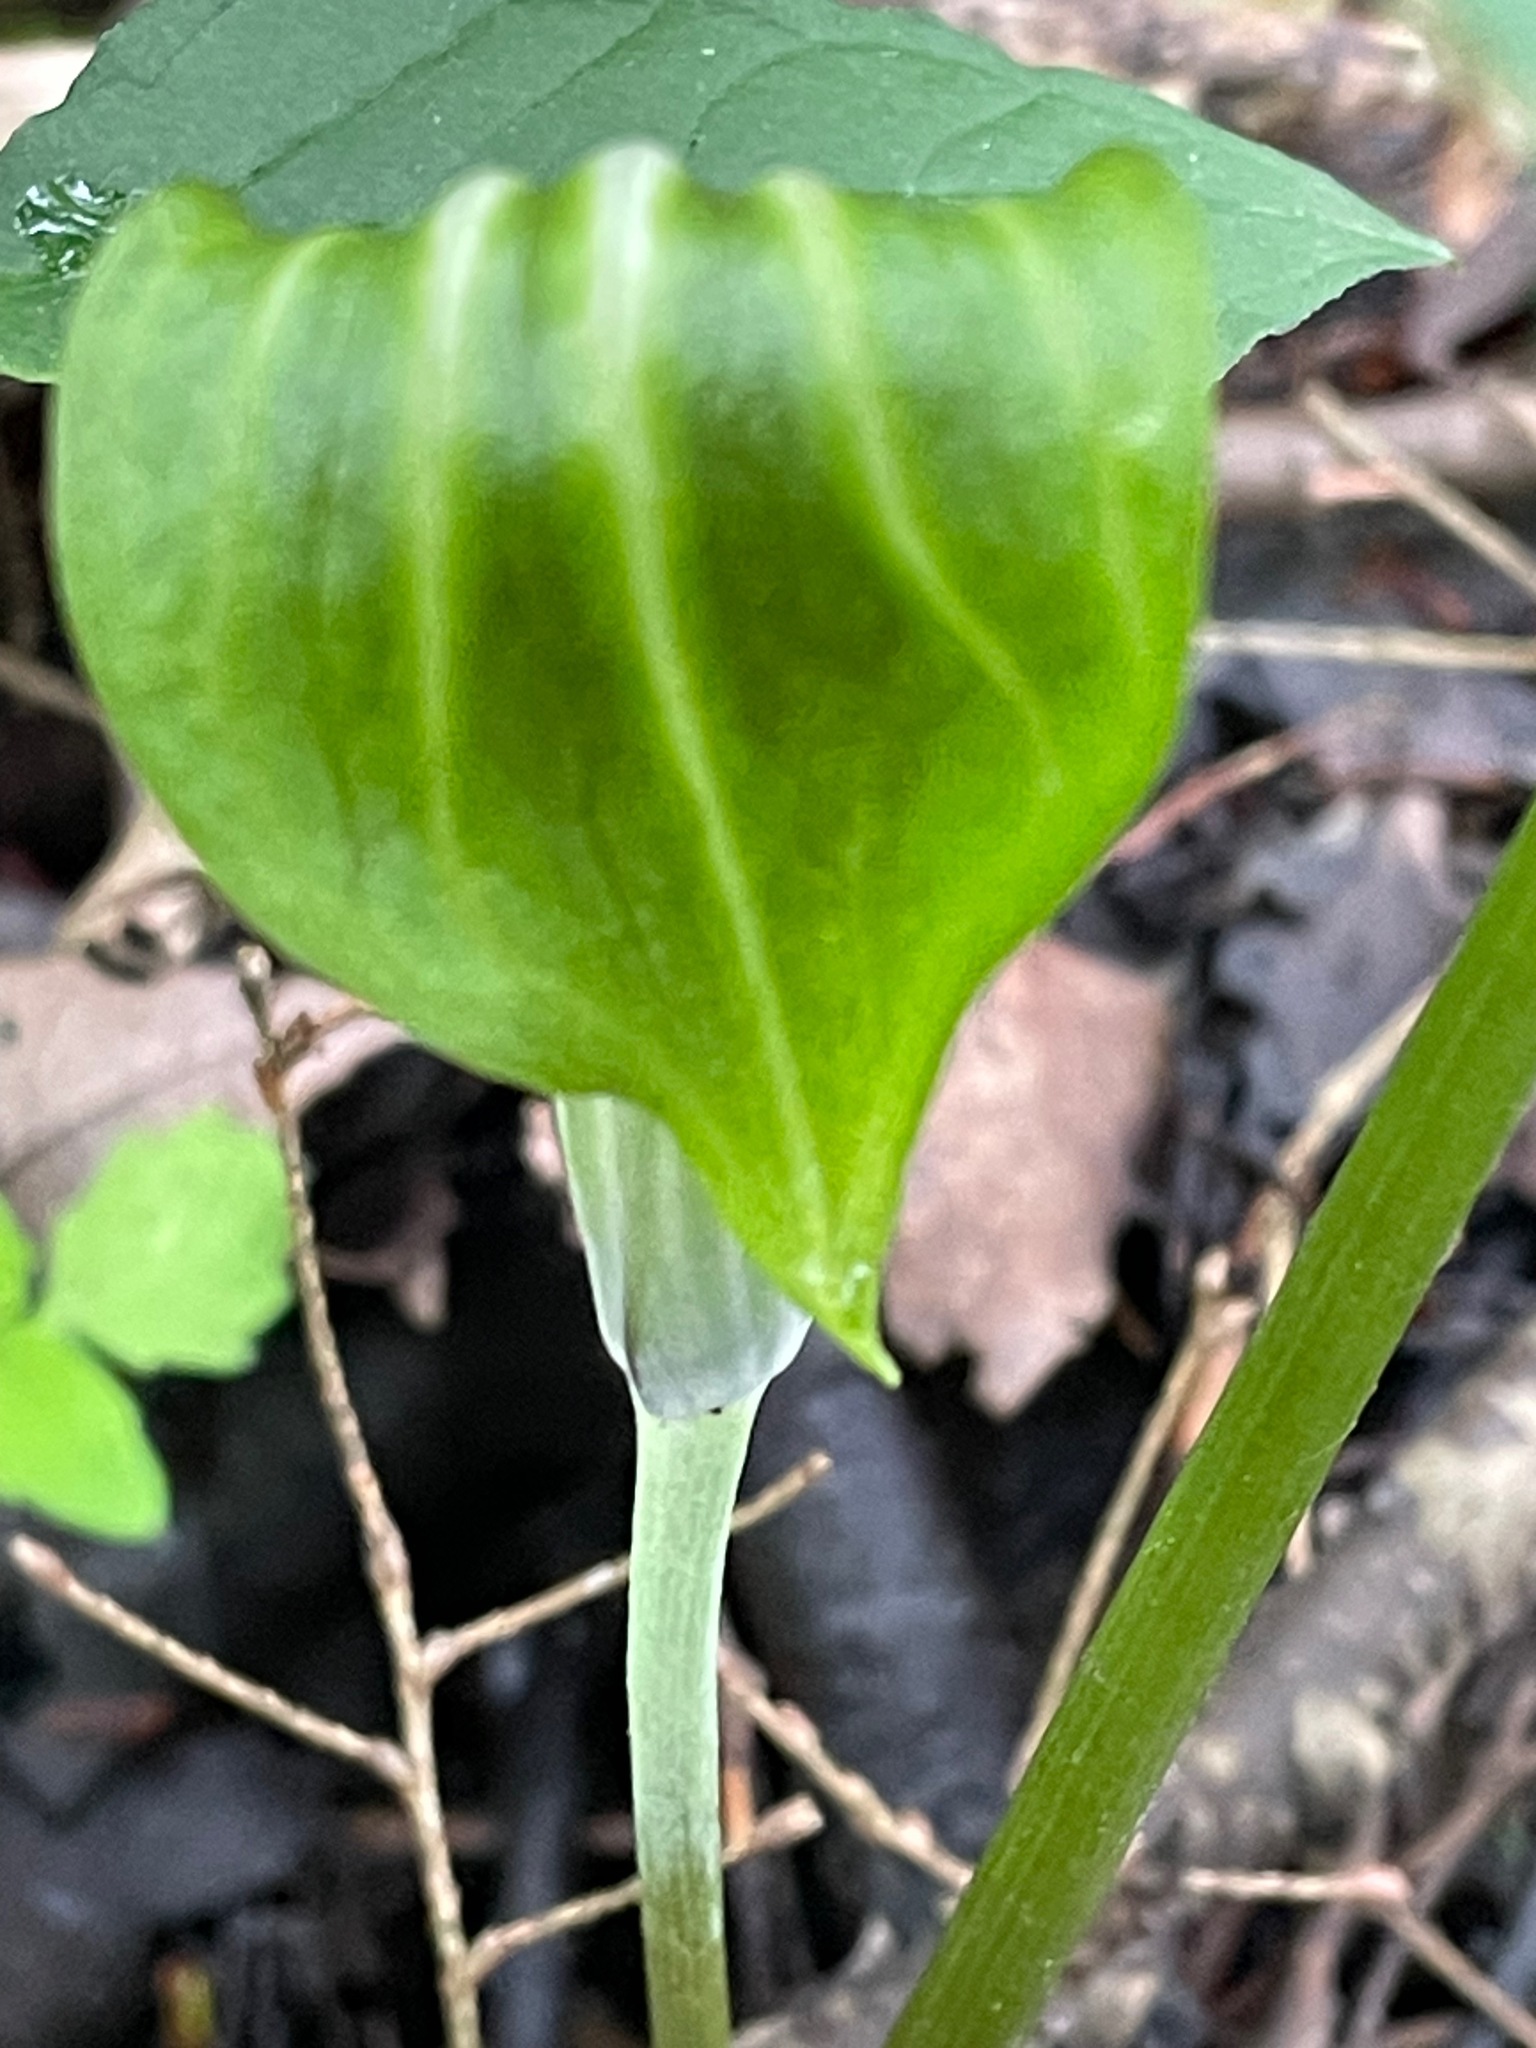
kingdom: Plantae
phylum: Tracheophyta
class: Liliopsida
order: Alismatales
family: Araceae
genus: Arisaema
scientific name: Arisaema stewardsonii
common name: Swamp jack-in-the-pulpit
